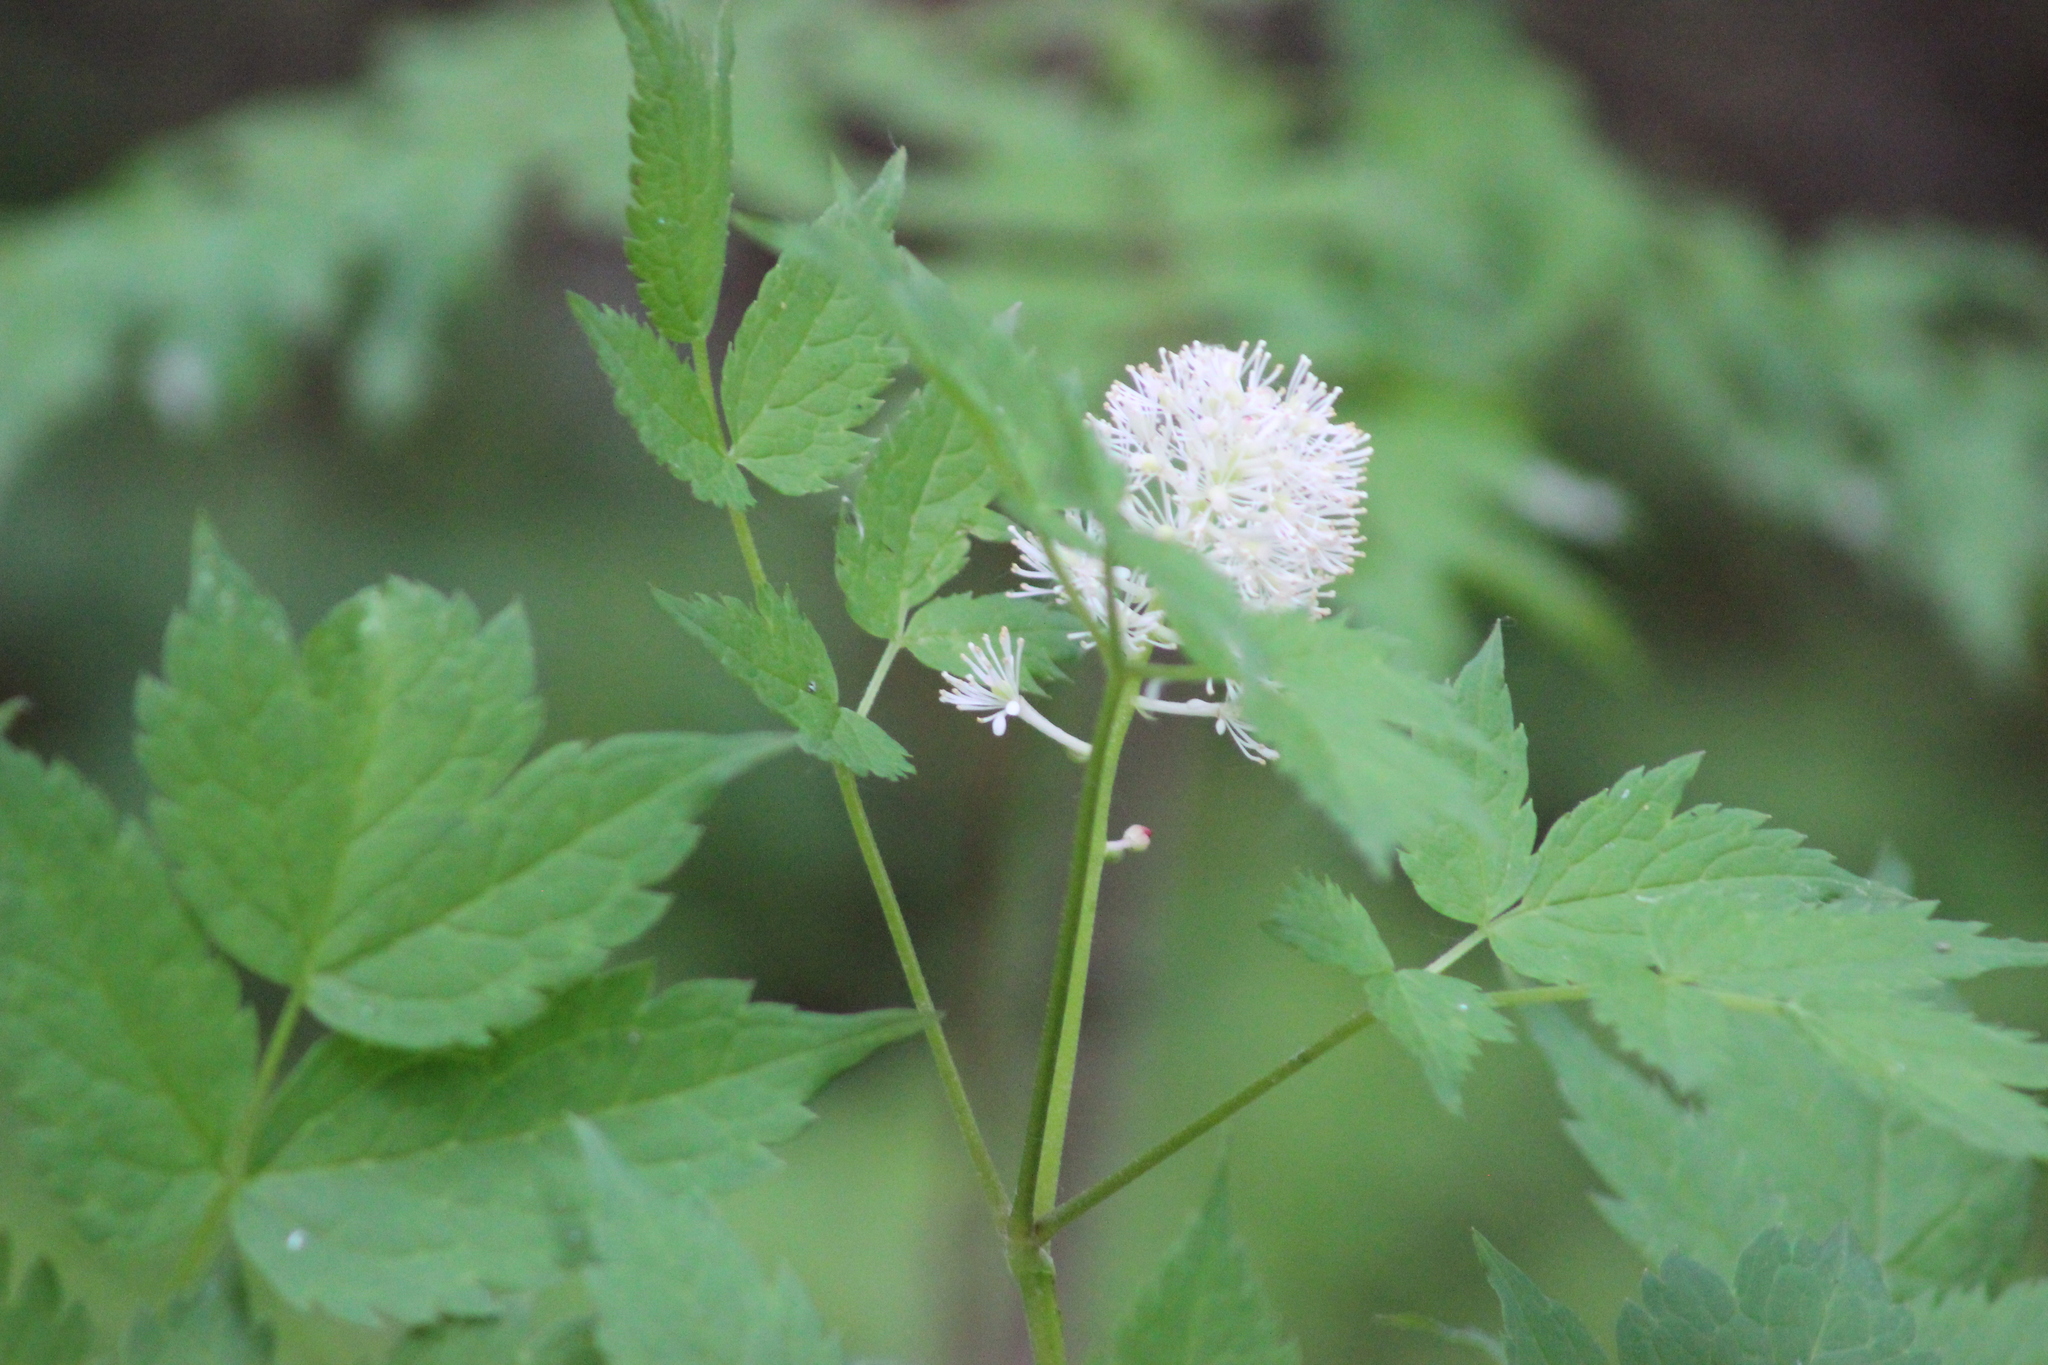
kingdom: Plantae
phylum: Tracheophyta
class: Magnoliopsida
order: Ranunculales
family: Ranunculaceae
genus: Actaea
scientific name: Actaea spicata
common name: Baneberry
